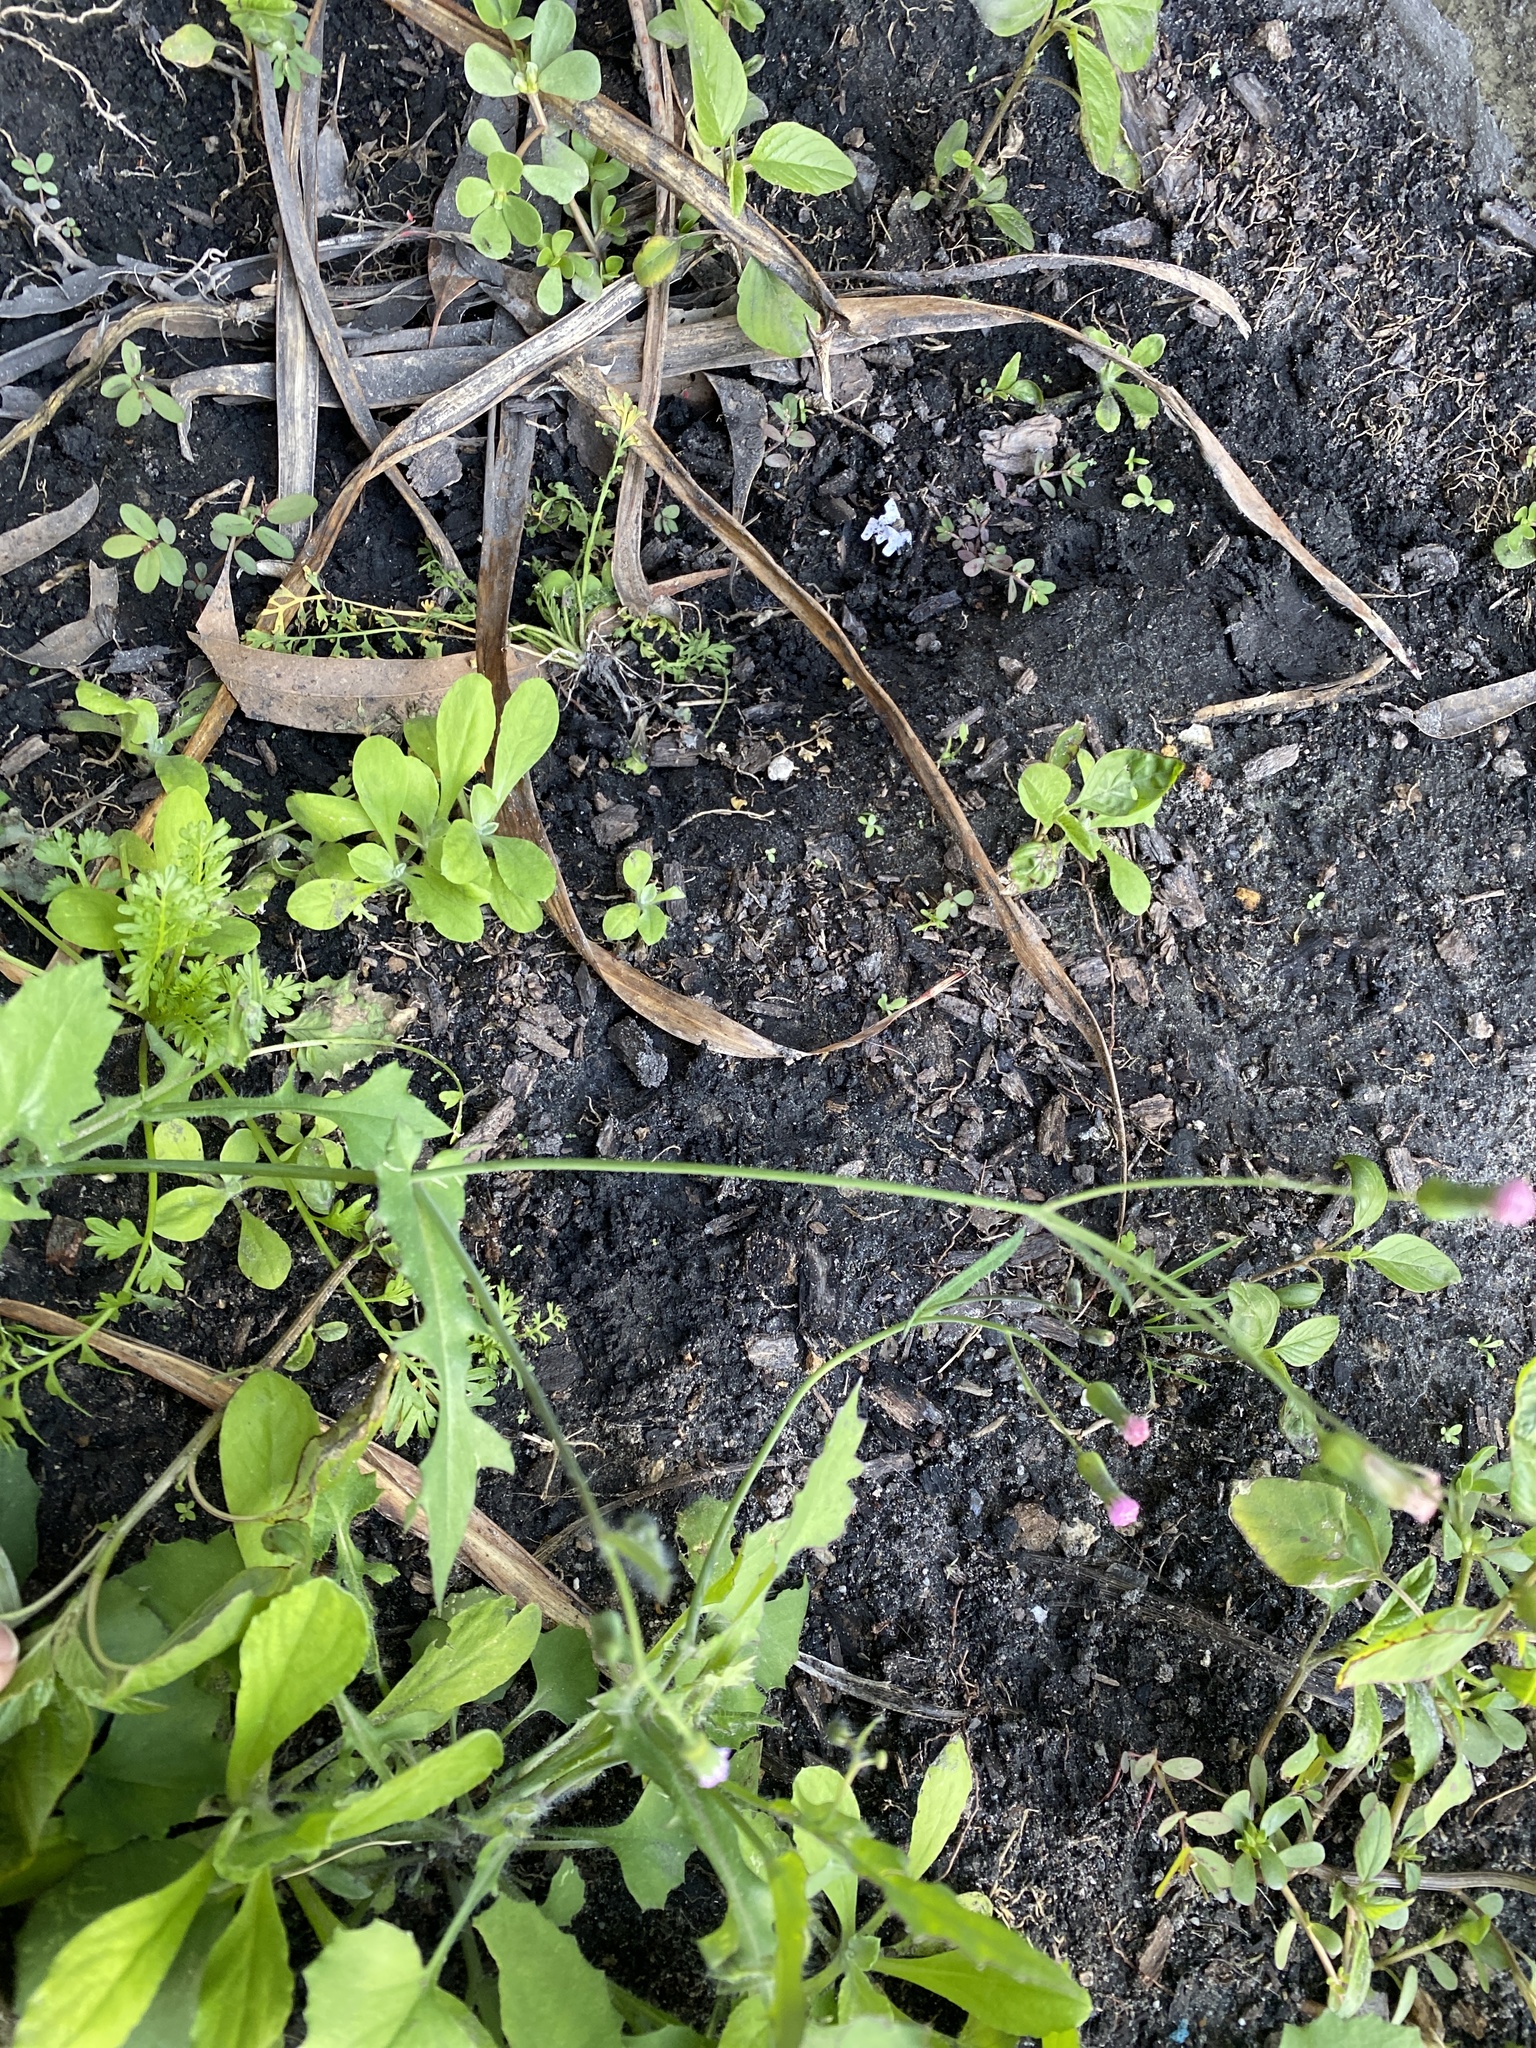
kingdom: Plantae
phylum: Tracheophyta
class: Magnoliopsida
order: Asterales
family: Asteraceae
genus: Emilia
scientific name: Emilia javanica
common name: Tassel-flower
